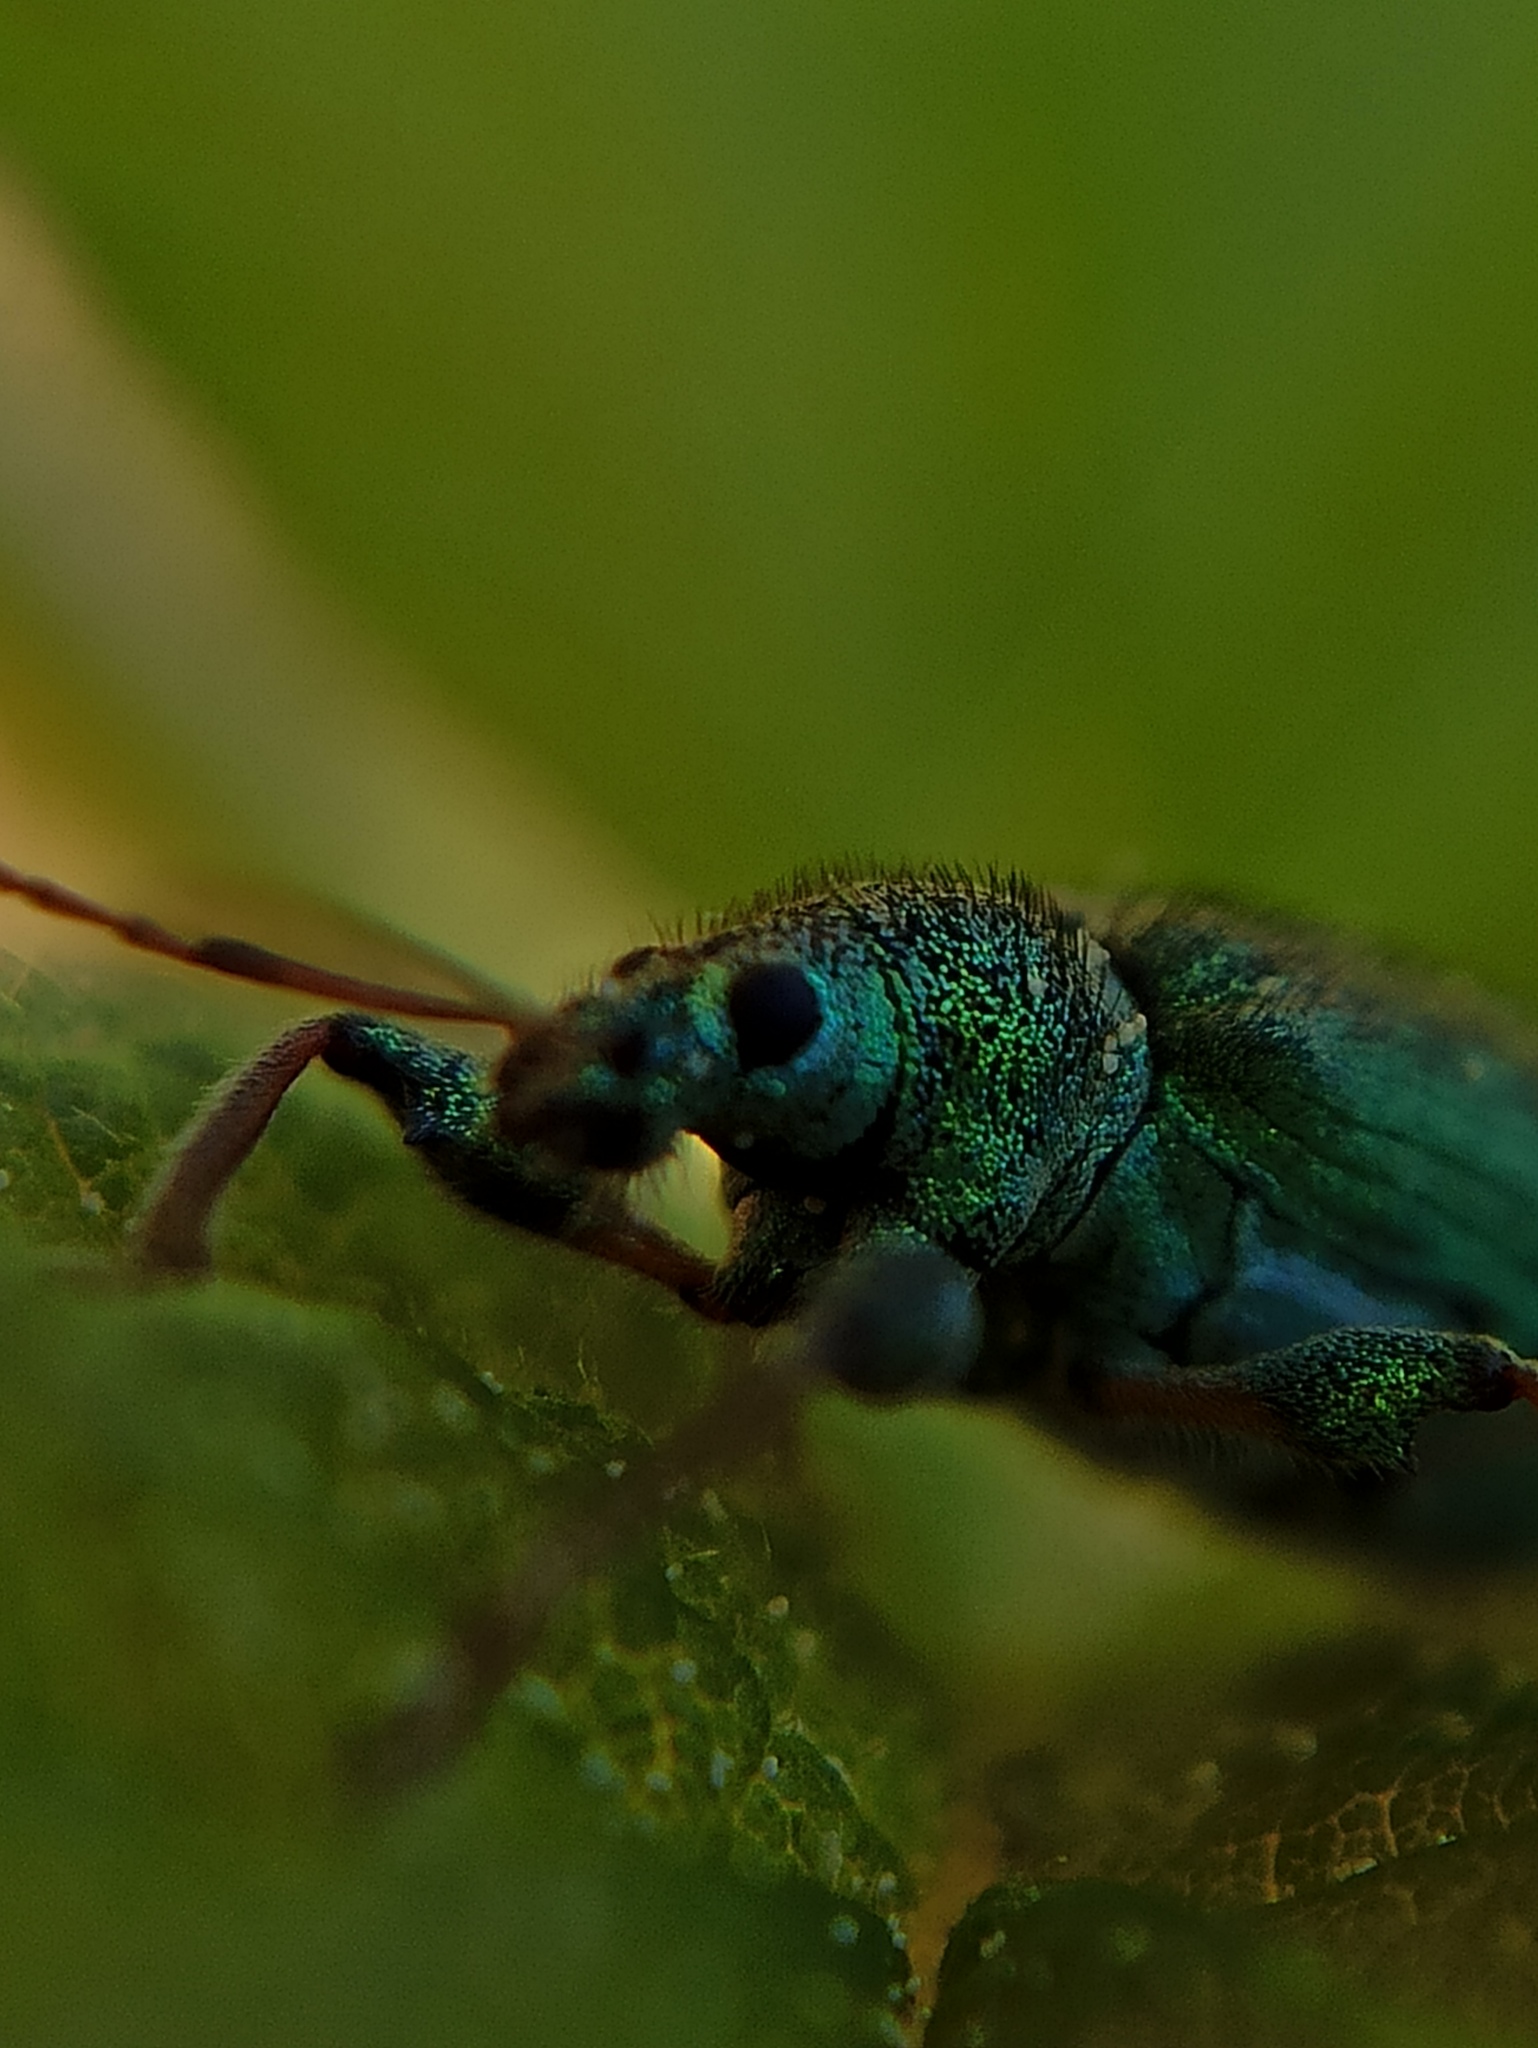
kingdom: Animalia
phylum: Arthropoda
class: Insecta
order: Coleoptera
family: Curculionidae
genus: Phyllobius
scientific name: Phyllobius arborator
